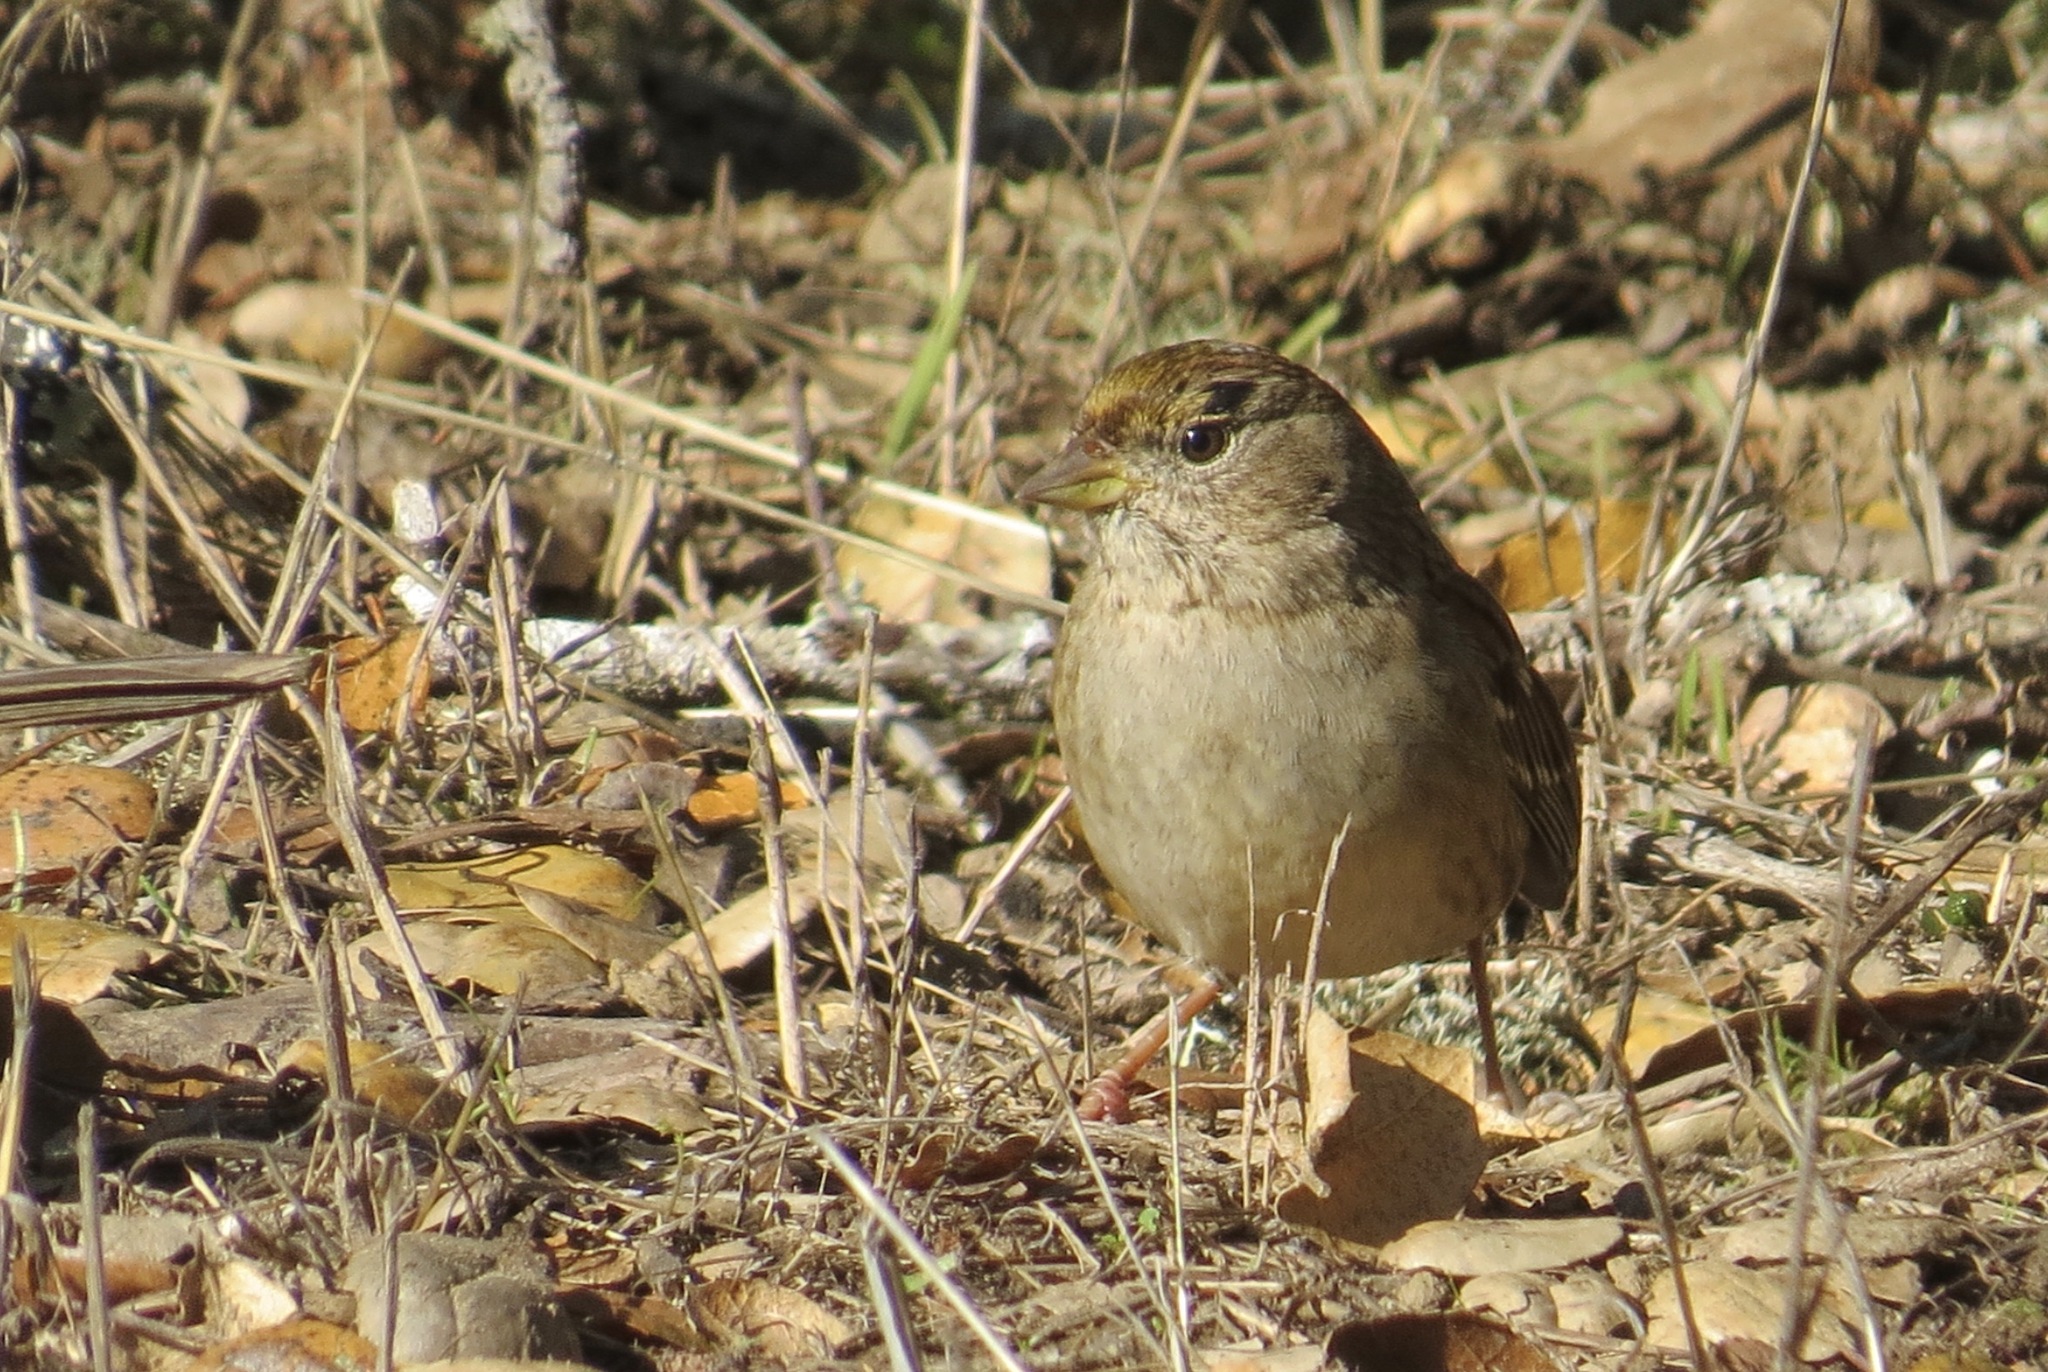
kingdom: Animalia
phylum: Chordata
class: Aves
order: Passeriformes
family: Passerellidae
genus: Zonotrichia
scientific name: Zonotrichia atricapilla
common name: Golden-crowned sparrow
